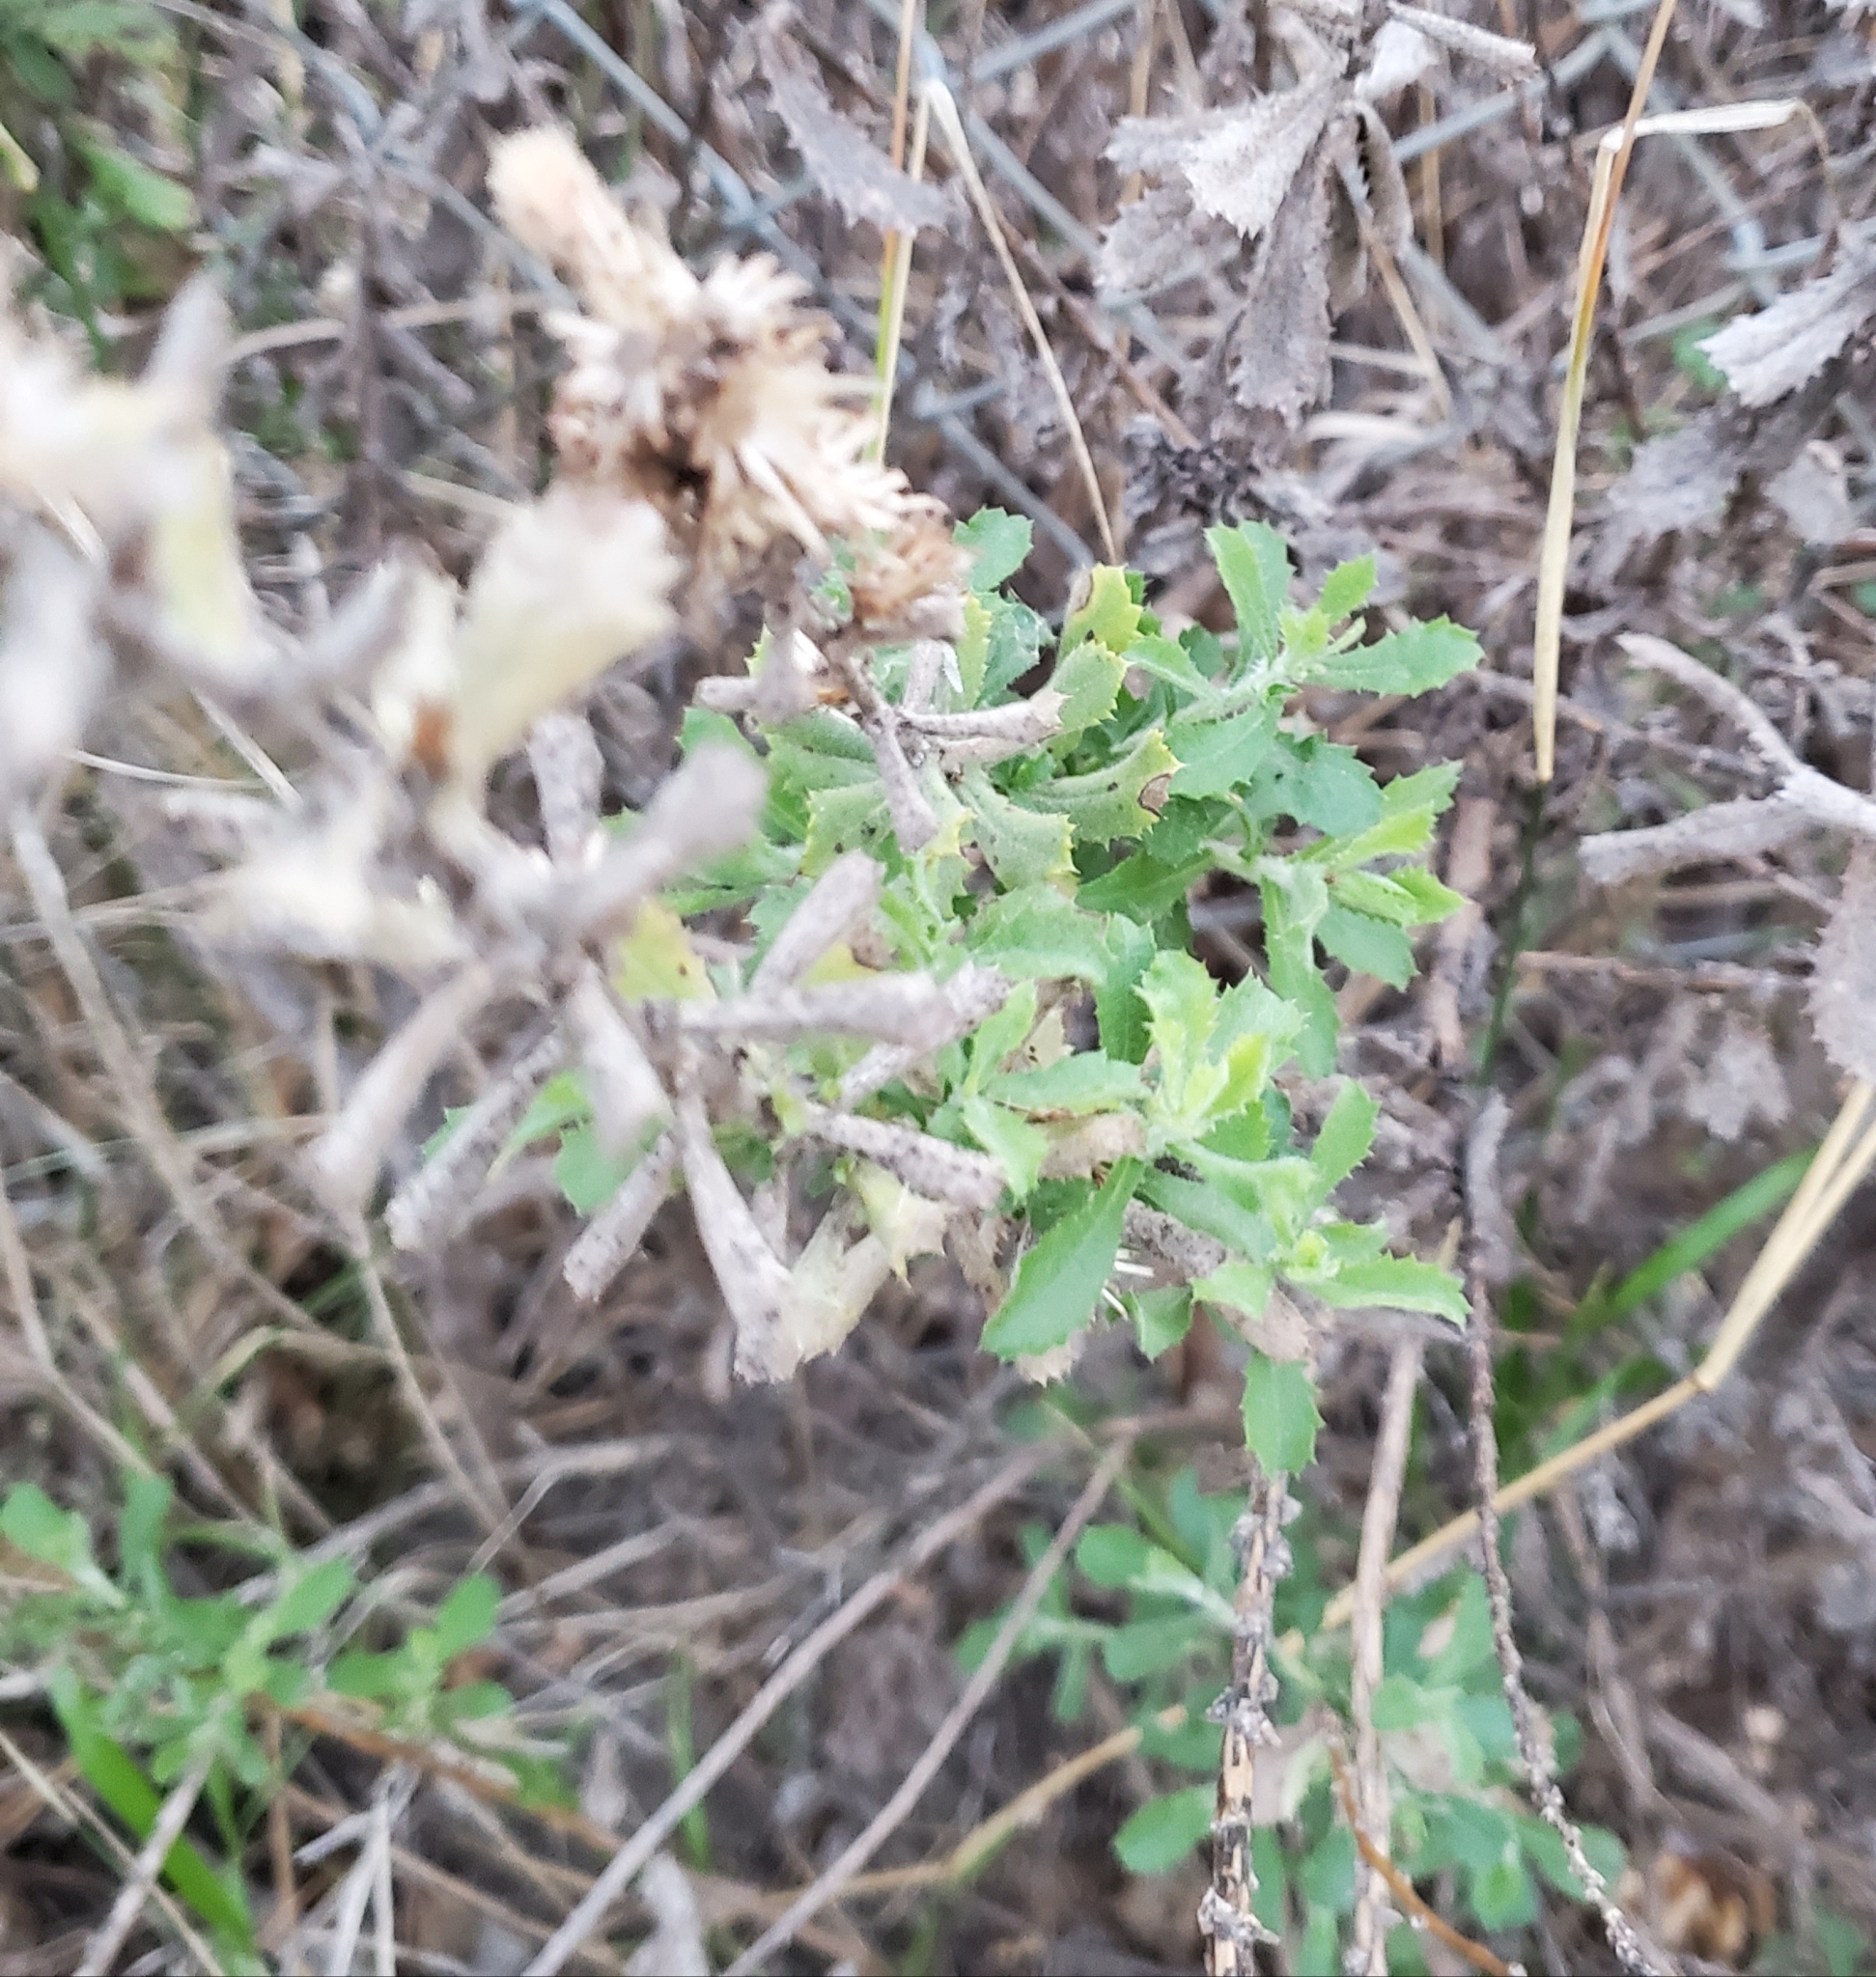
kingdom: Plantae
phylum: Tracheophyta
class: Magnoliopsida
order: Asterales
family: Asteraceae
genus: Hazardia
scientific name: Hazardia squarrosa
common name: Saw-tooth goldenbush
